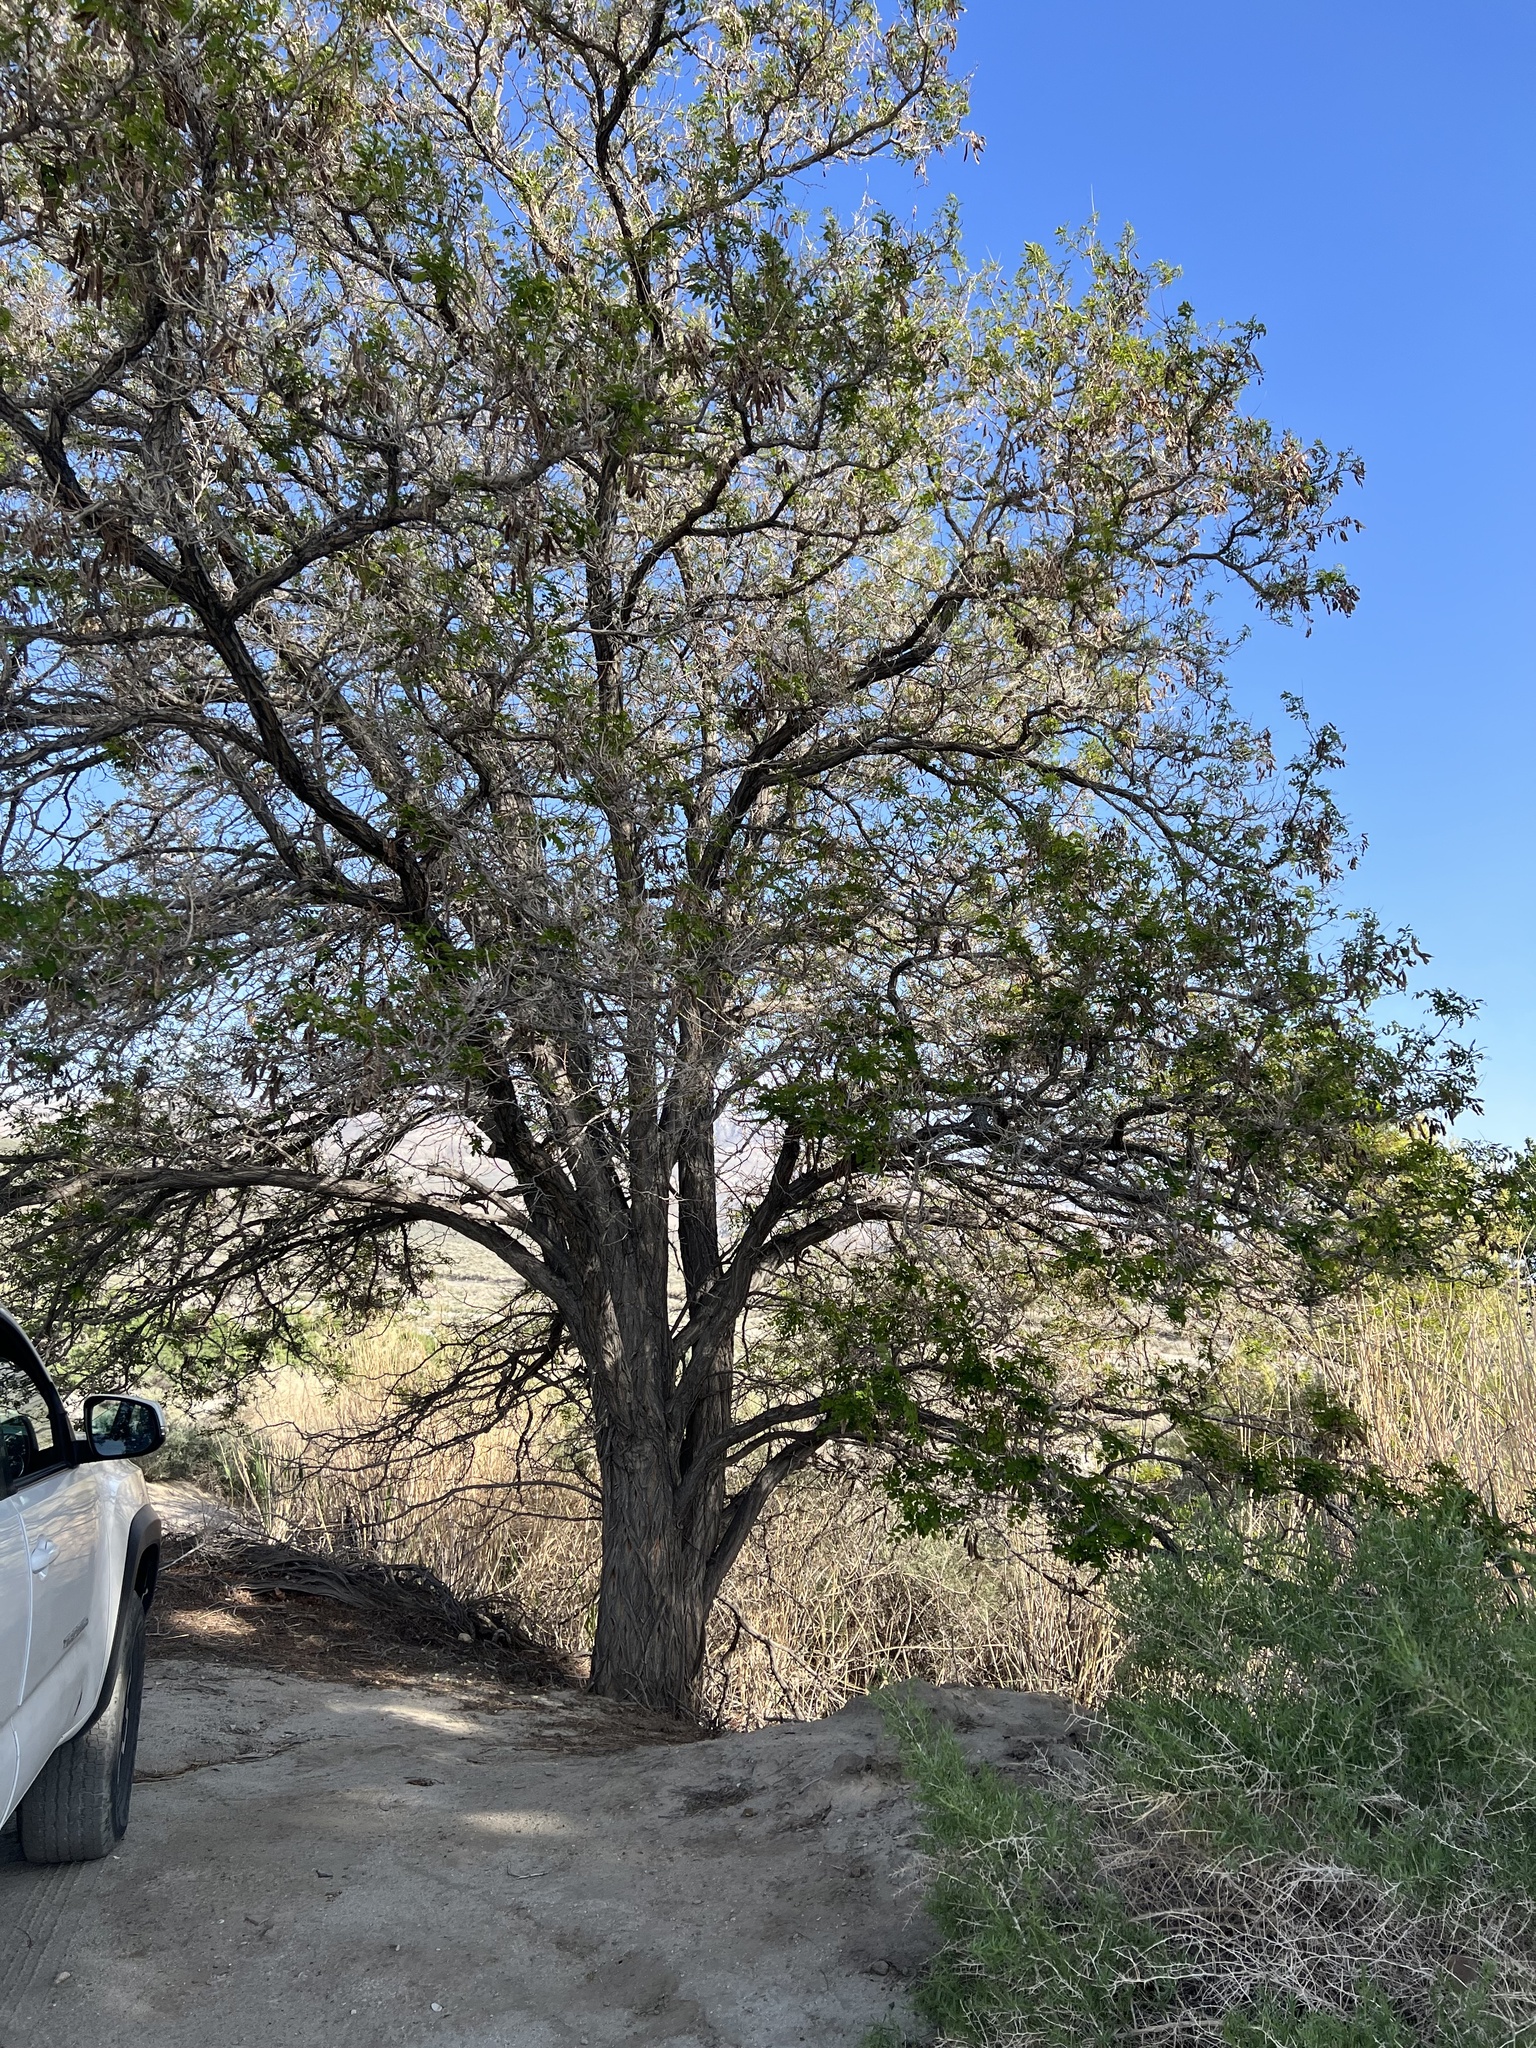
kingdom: Plantae
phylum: Tracheophyta
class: Magnoliopsida
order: Fabales
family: Fabaceae
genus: Robinia
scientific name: Robinia pseudoacacia
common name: Black locust
